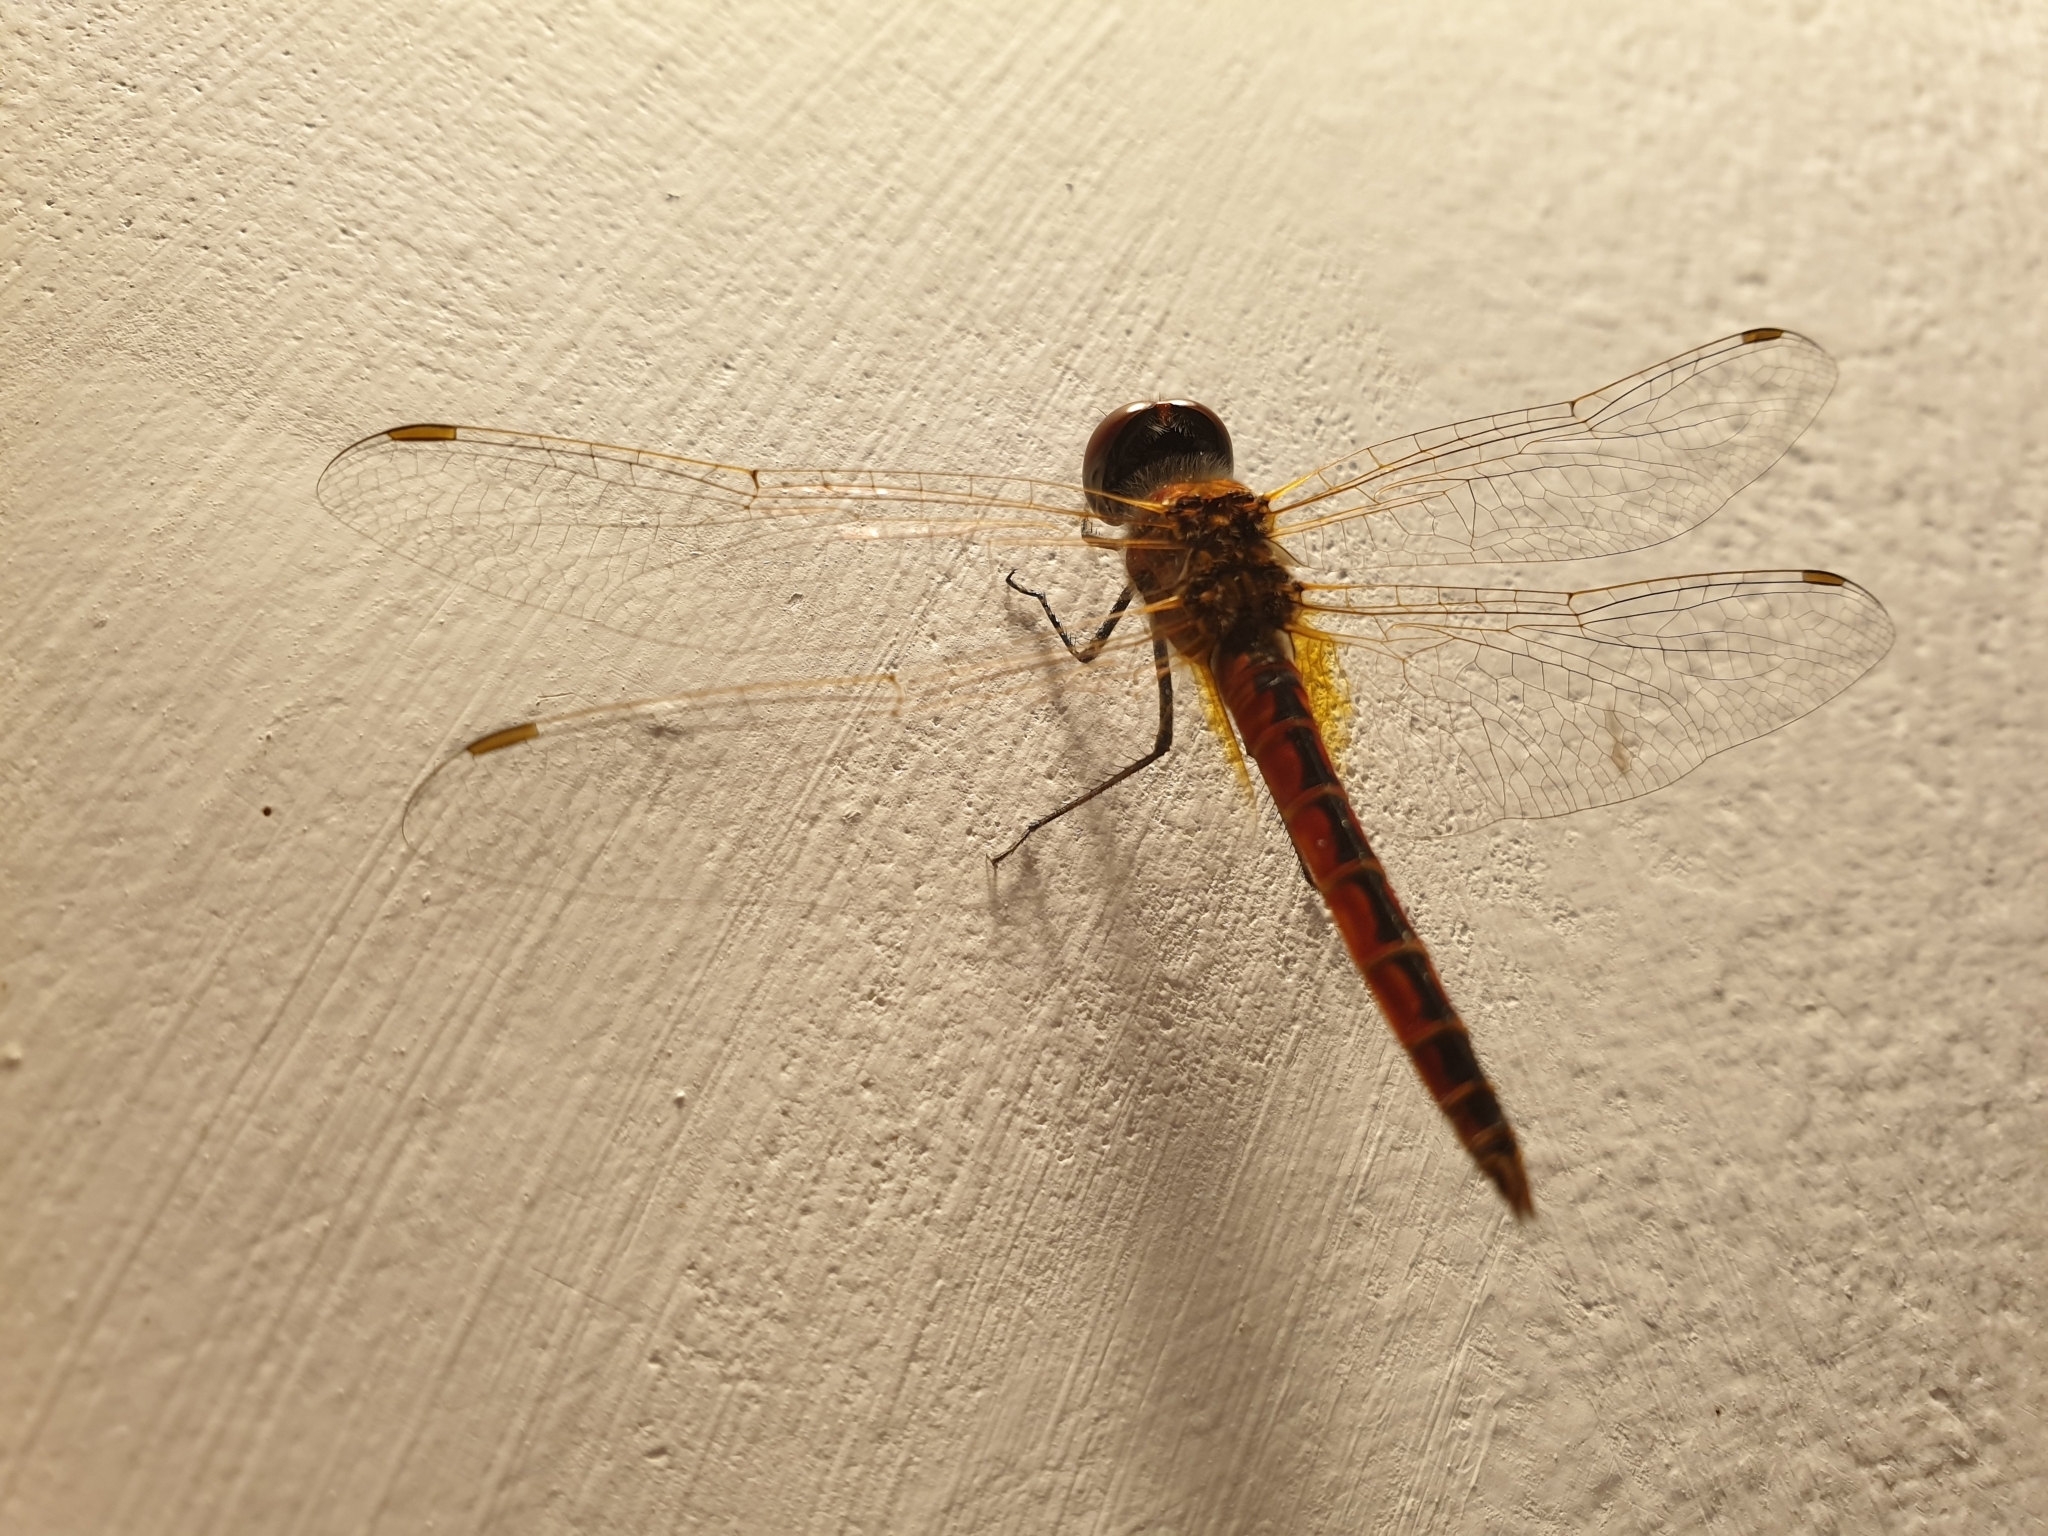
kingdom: Animalia
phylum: Arthropoda
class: Insecta
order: Odonata
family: Libellulidae
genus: Macrodiplax
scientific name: Macrodiplax cora
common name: Coastal glider
